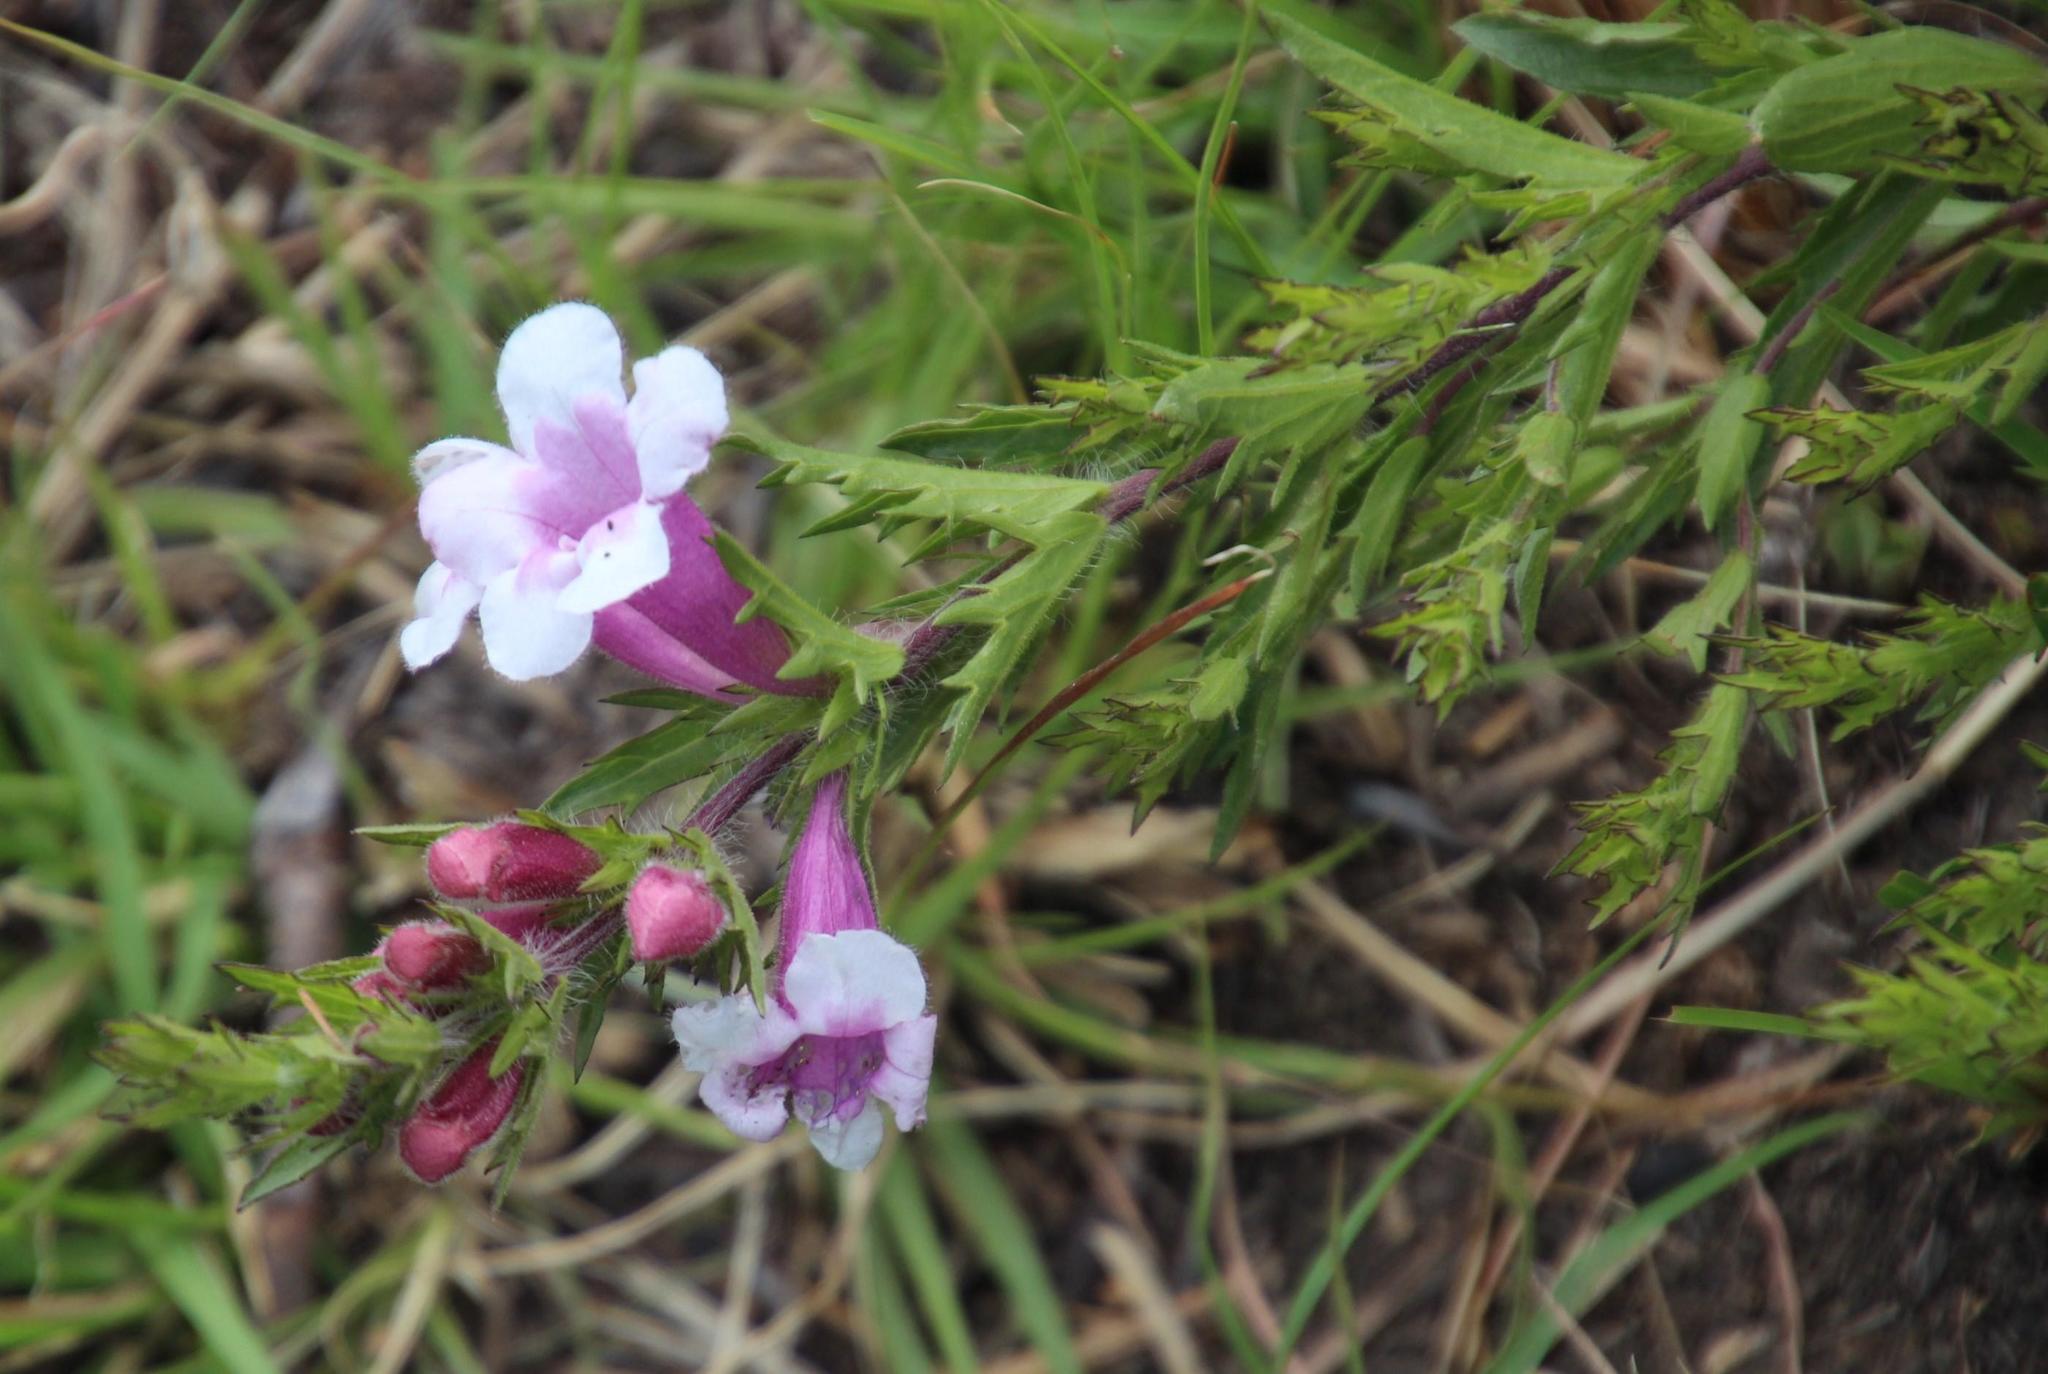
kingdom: Plantae
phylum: Tracheophyta
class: Magnoliopsida
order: Lamiales
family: Orobanchaceae
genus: Graderia
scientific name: Graderia subintegra
